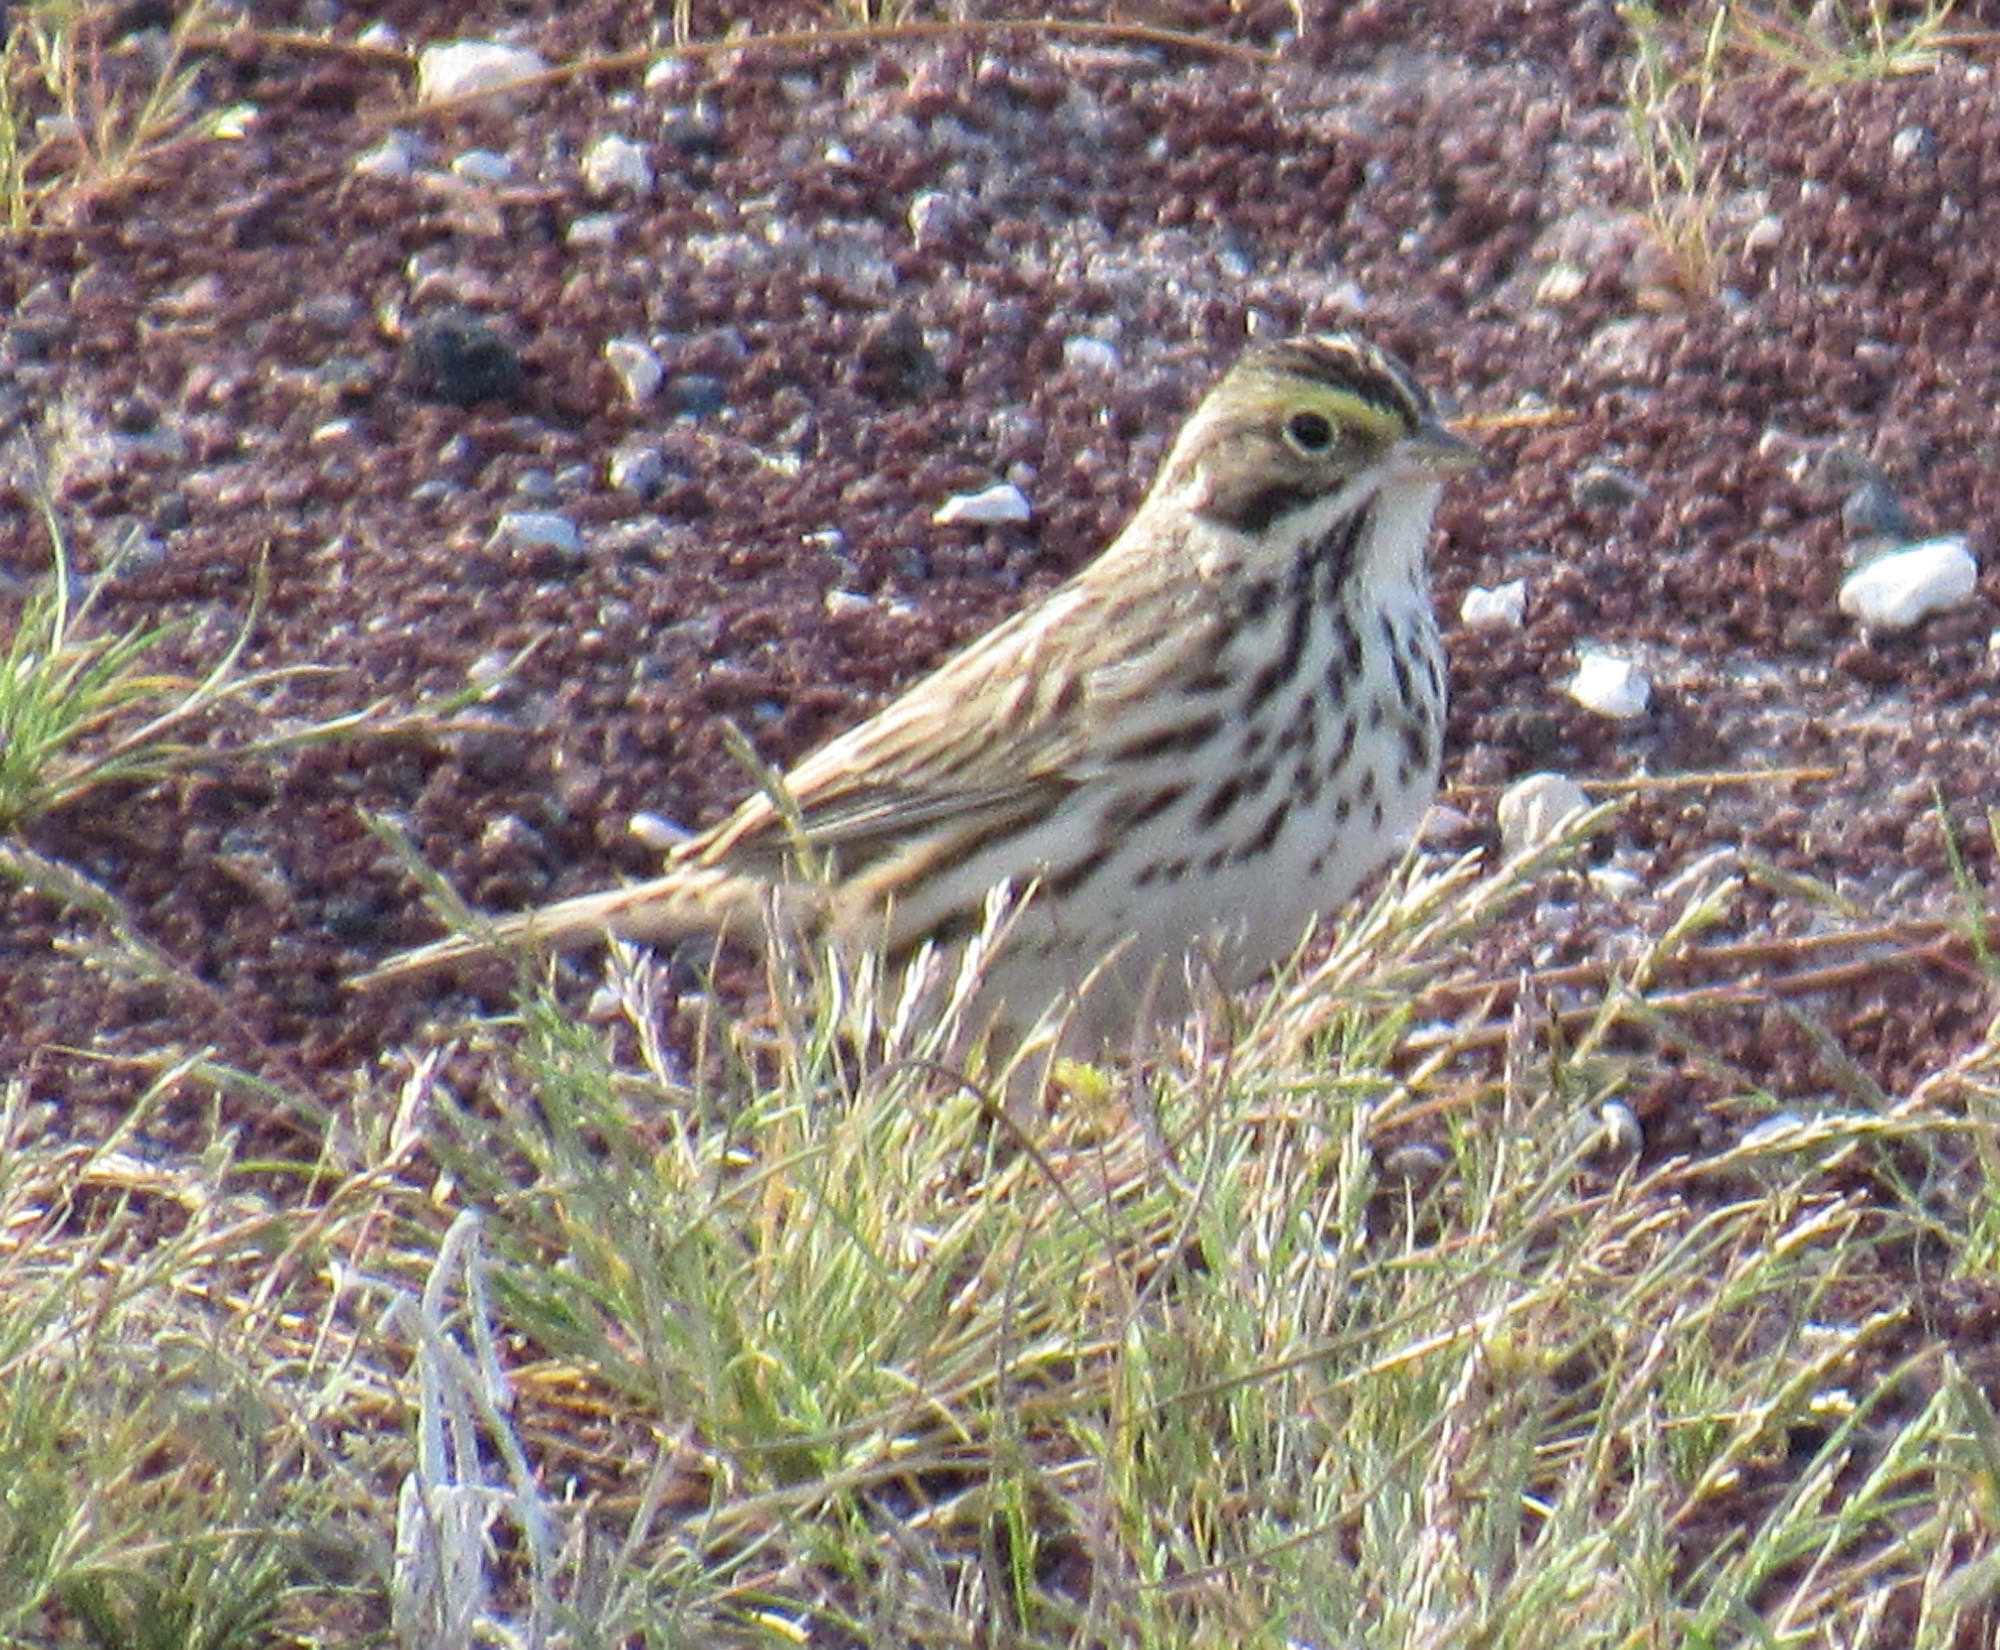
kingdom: Animalia
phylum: Chordata
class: Aves
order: Passeriformes
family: Passerellidae
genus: Passerculus
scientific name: Passerculus sandwichensis
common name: Savannah sparrow
